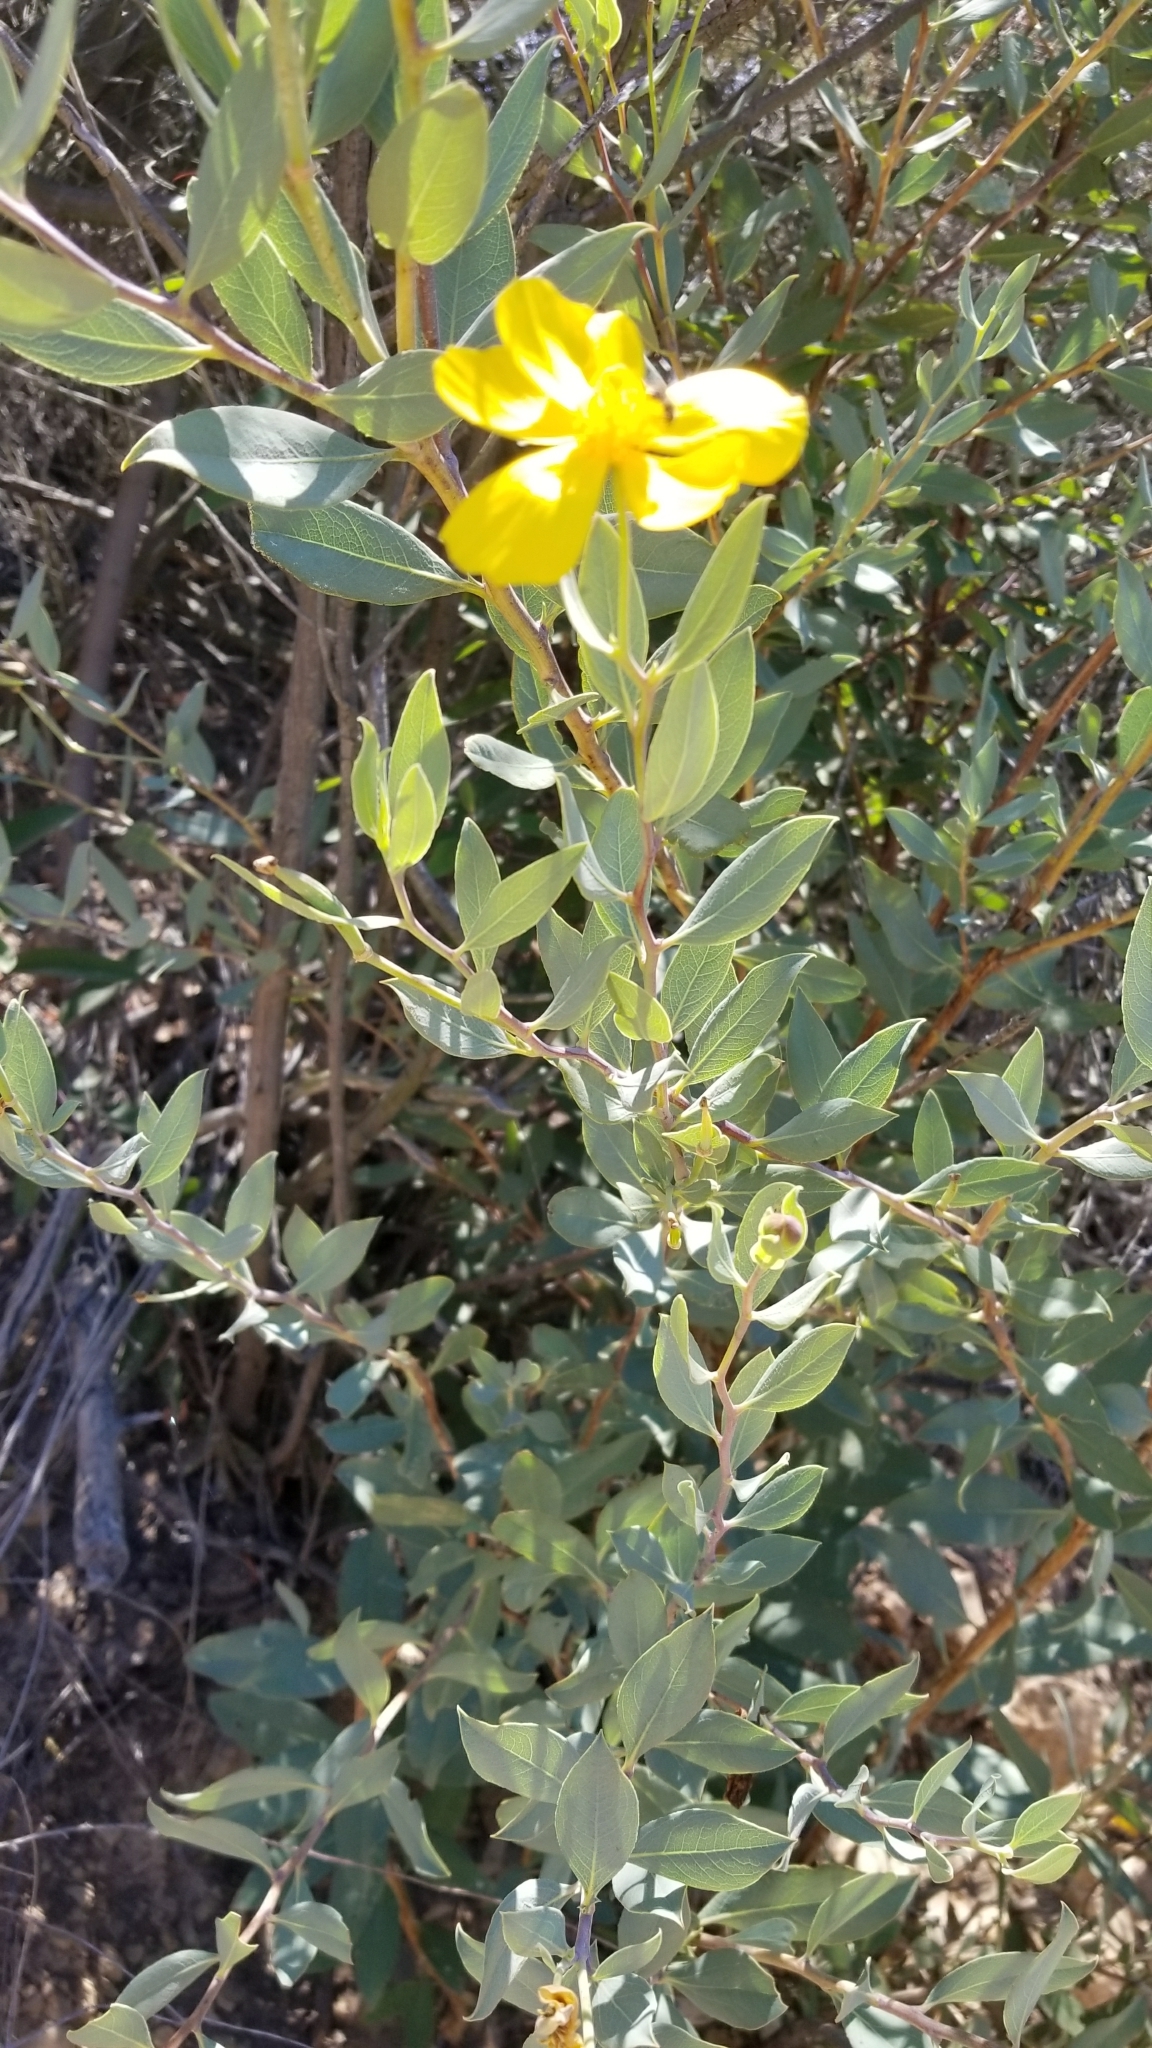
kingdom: Plantae
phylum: Tracheophyta
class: Magnoliopsida
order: Ranunculales
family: Papaveraceae
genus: Dendromecon
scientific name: Dendromecon rigida
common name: Tree poppy
